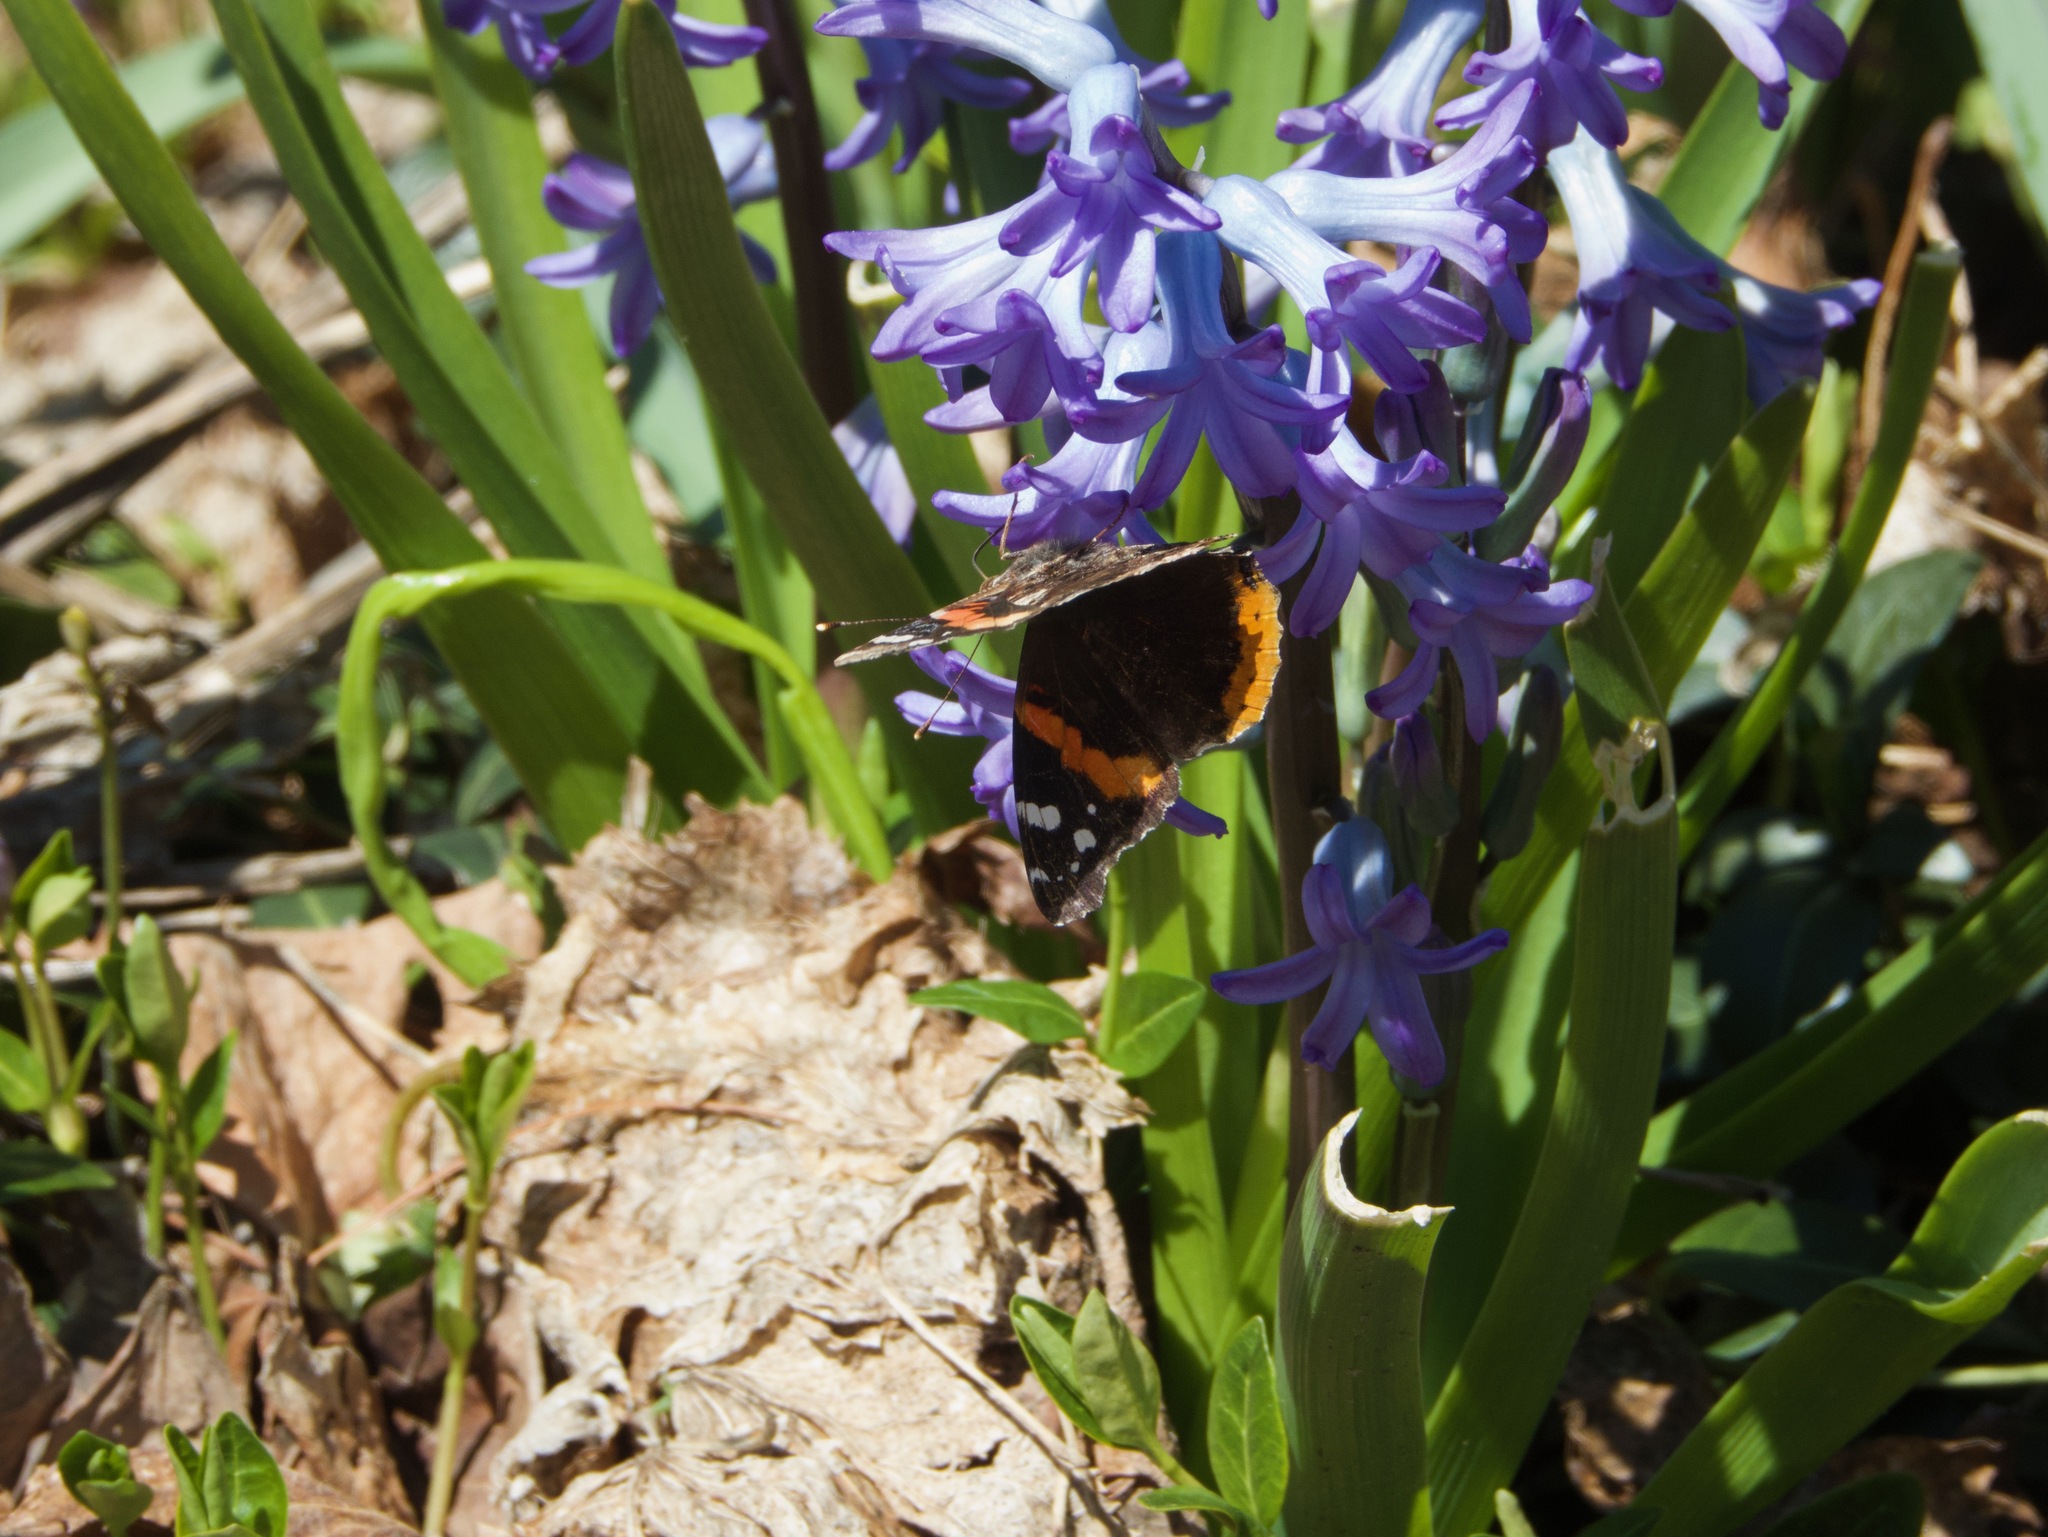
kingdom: Animalia
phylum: Arthropoda
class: Insecta
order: Lepidoptera
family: Nymphalidae
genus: Vanessa
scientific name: Vanessa atalanta
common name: Red admiral
